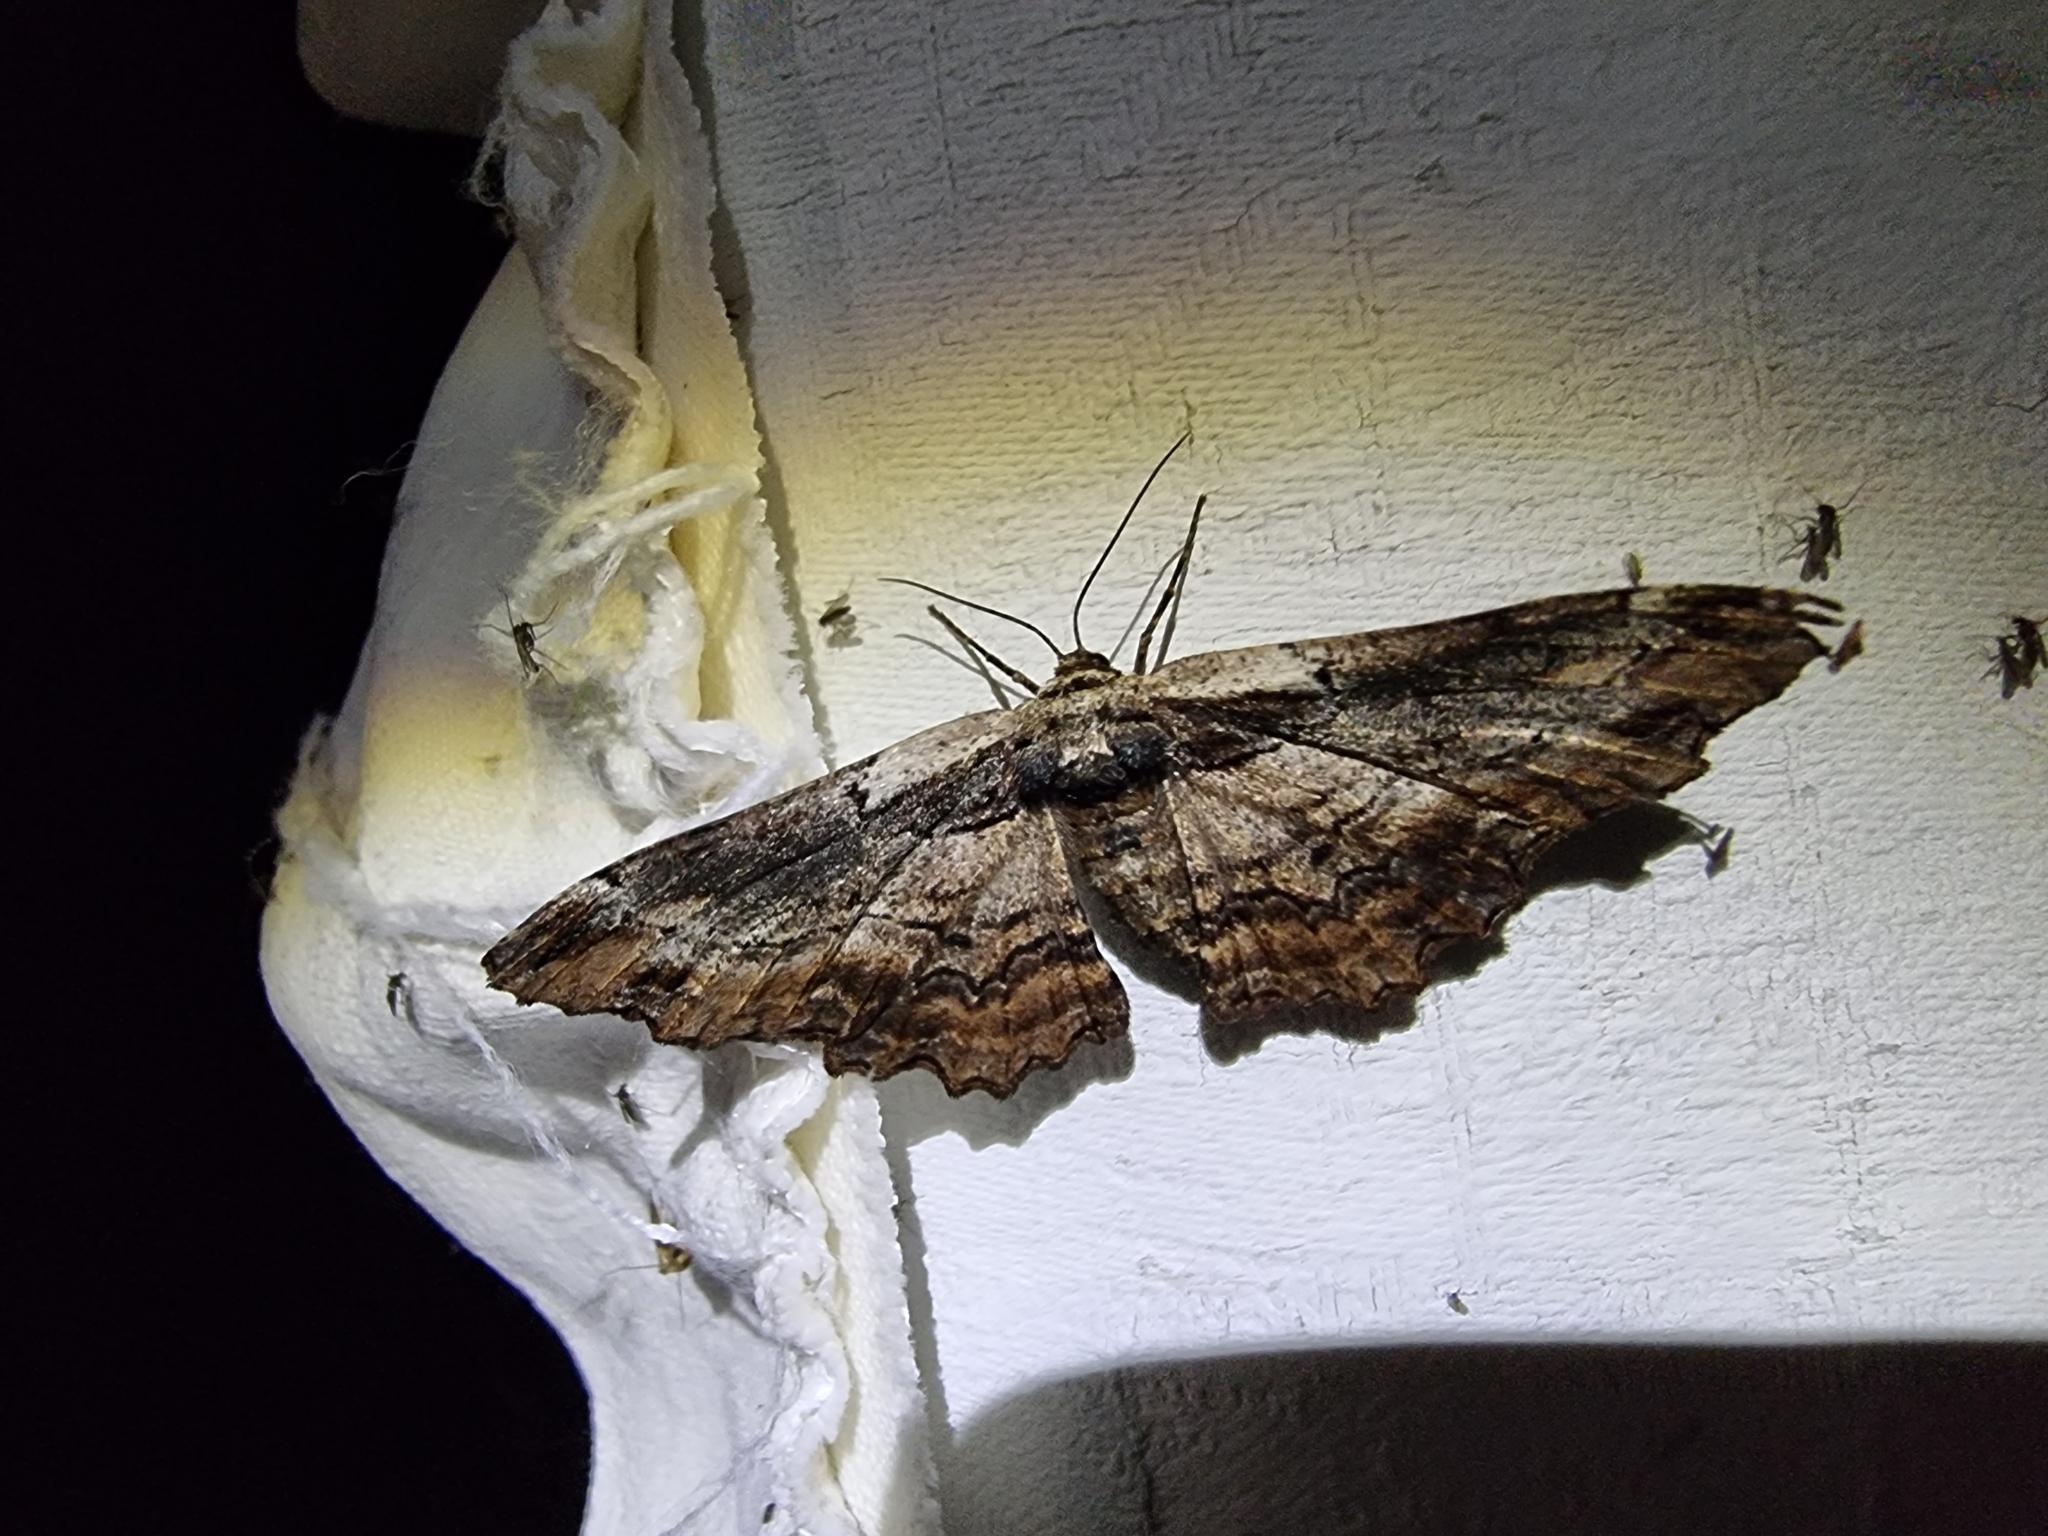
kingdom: Animalia
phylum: Arthropoda
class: Insecta
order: Lepidoptera
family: Geometridae
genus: Pholodes
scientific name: Pholodes sinistraria
